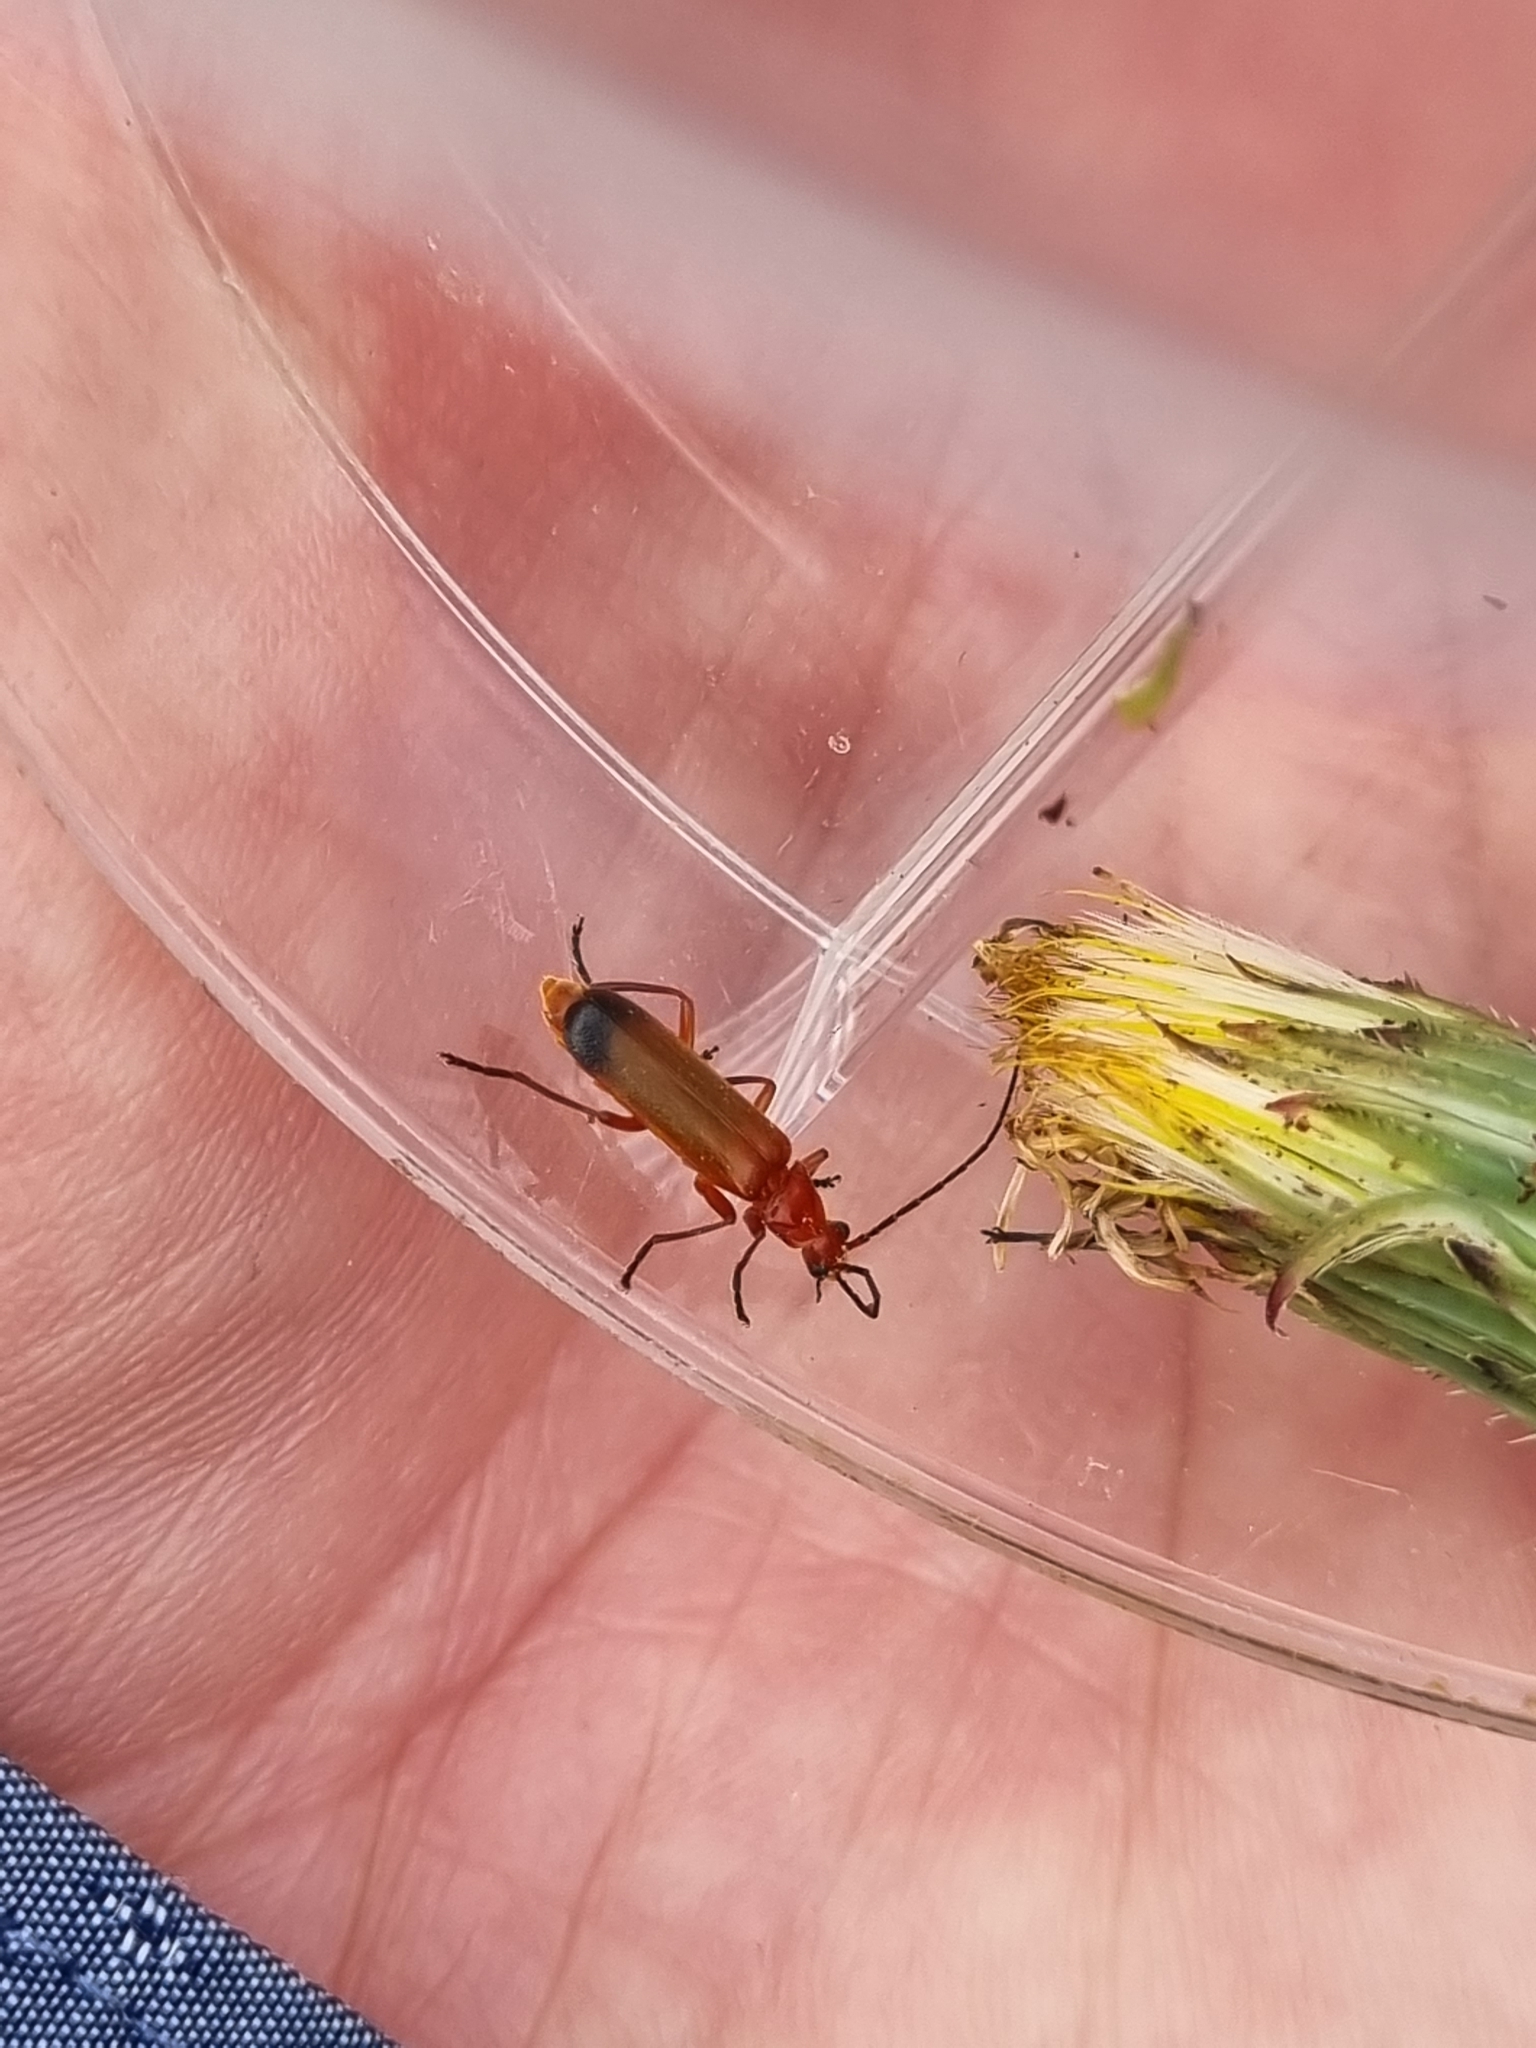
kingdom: Animalia
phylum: Arthropoda
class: Insecta
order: Coleoptera
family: Cantharidae
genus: Rhagonycha
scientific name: Rhagonycha fulva
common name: Common red soldier beetle
